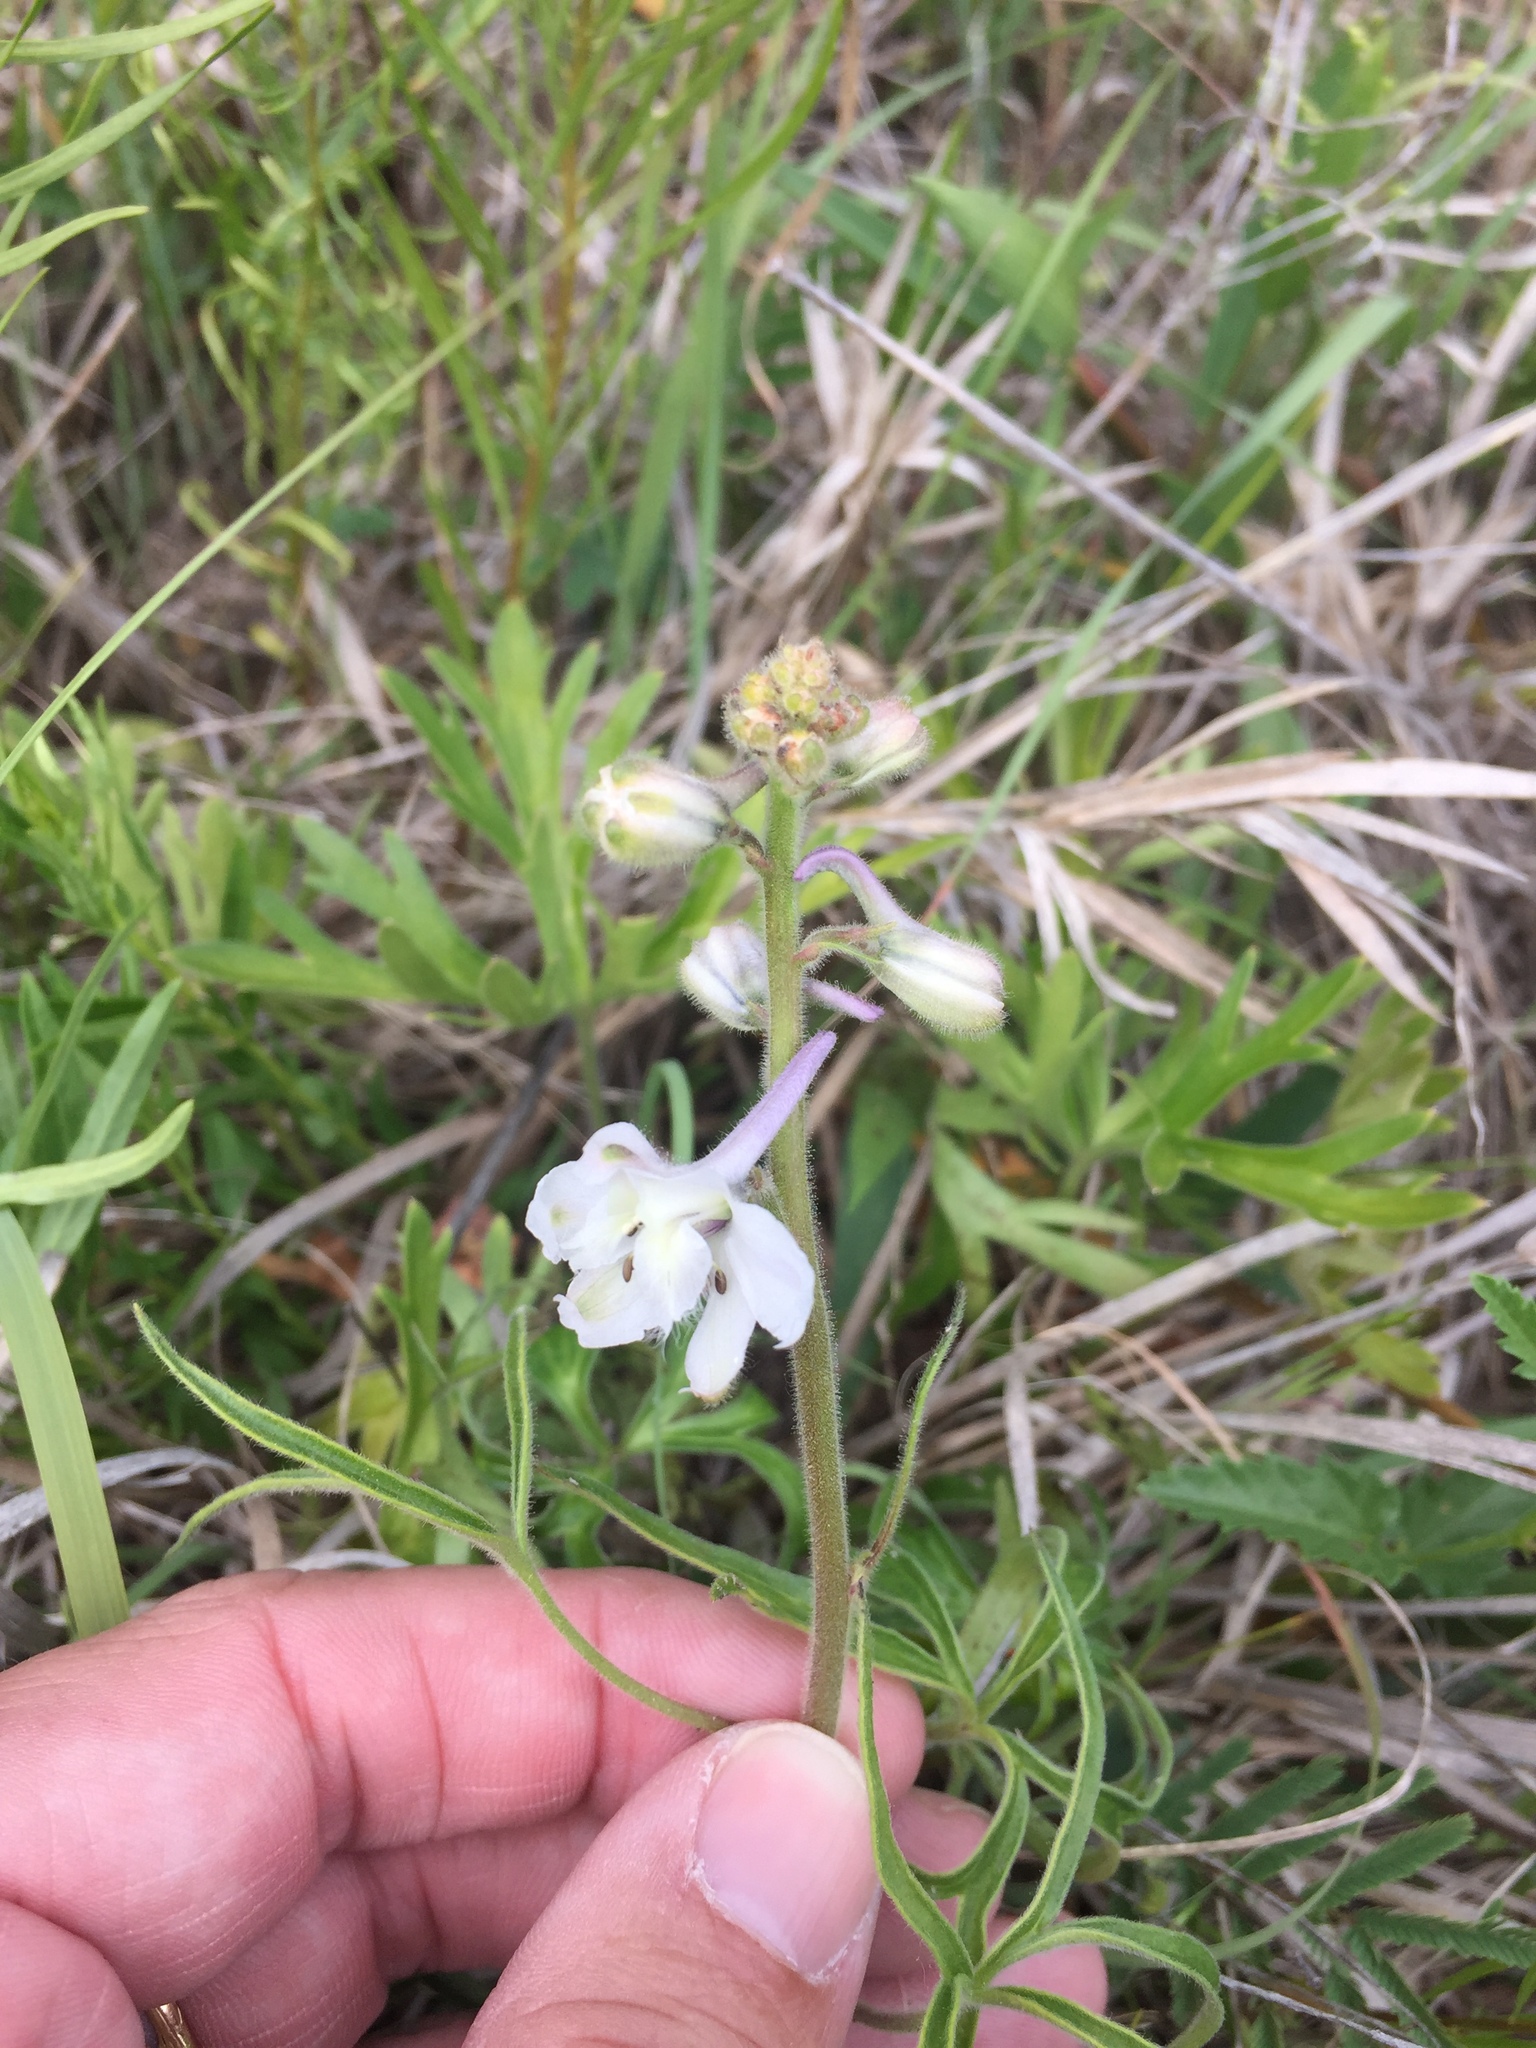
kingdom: Plantae
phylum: Tracheophyta
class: Magnoliopsida
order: Ranunculales
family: Ranunculaceae
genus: Delphinium
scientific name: Delphinium carolinianum
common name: Carolina larkspur
